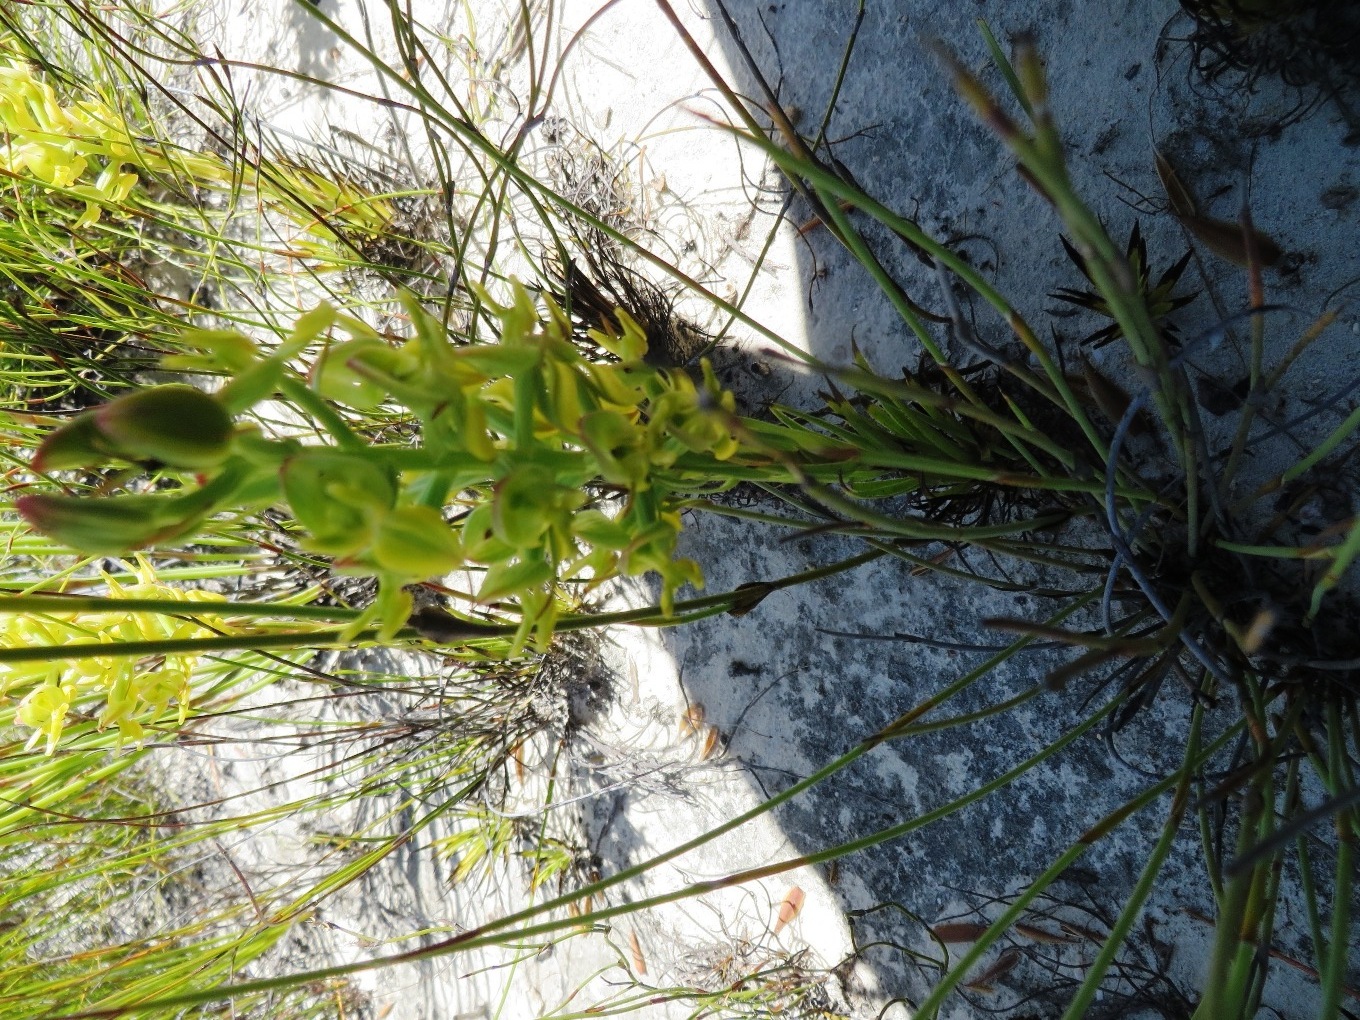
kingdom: Plantae
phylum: Tracheophyta
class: Liliopsida
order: Asparagales
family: Orchidaceae
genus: Ceratandra
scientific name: Ceratandra atrata
